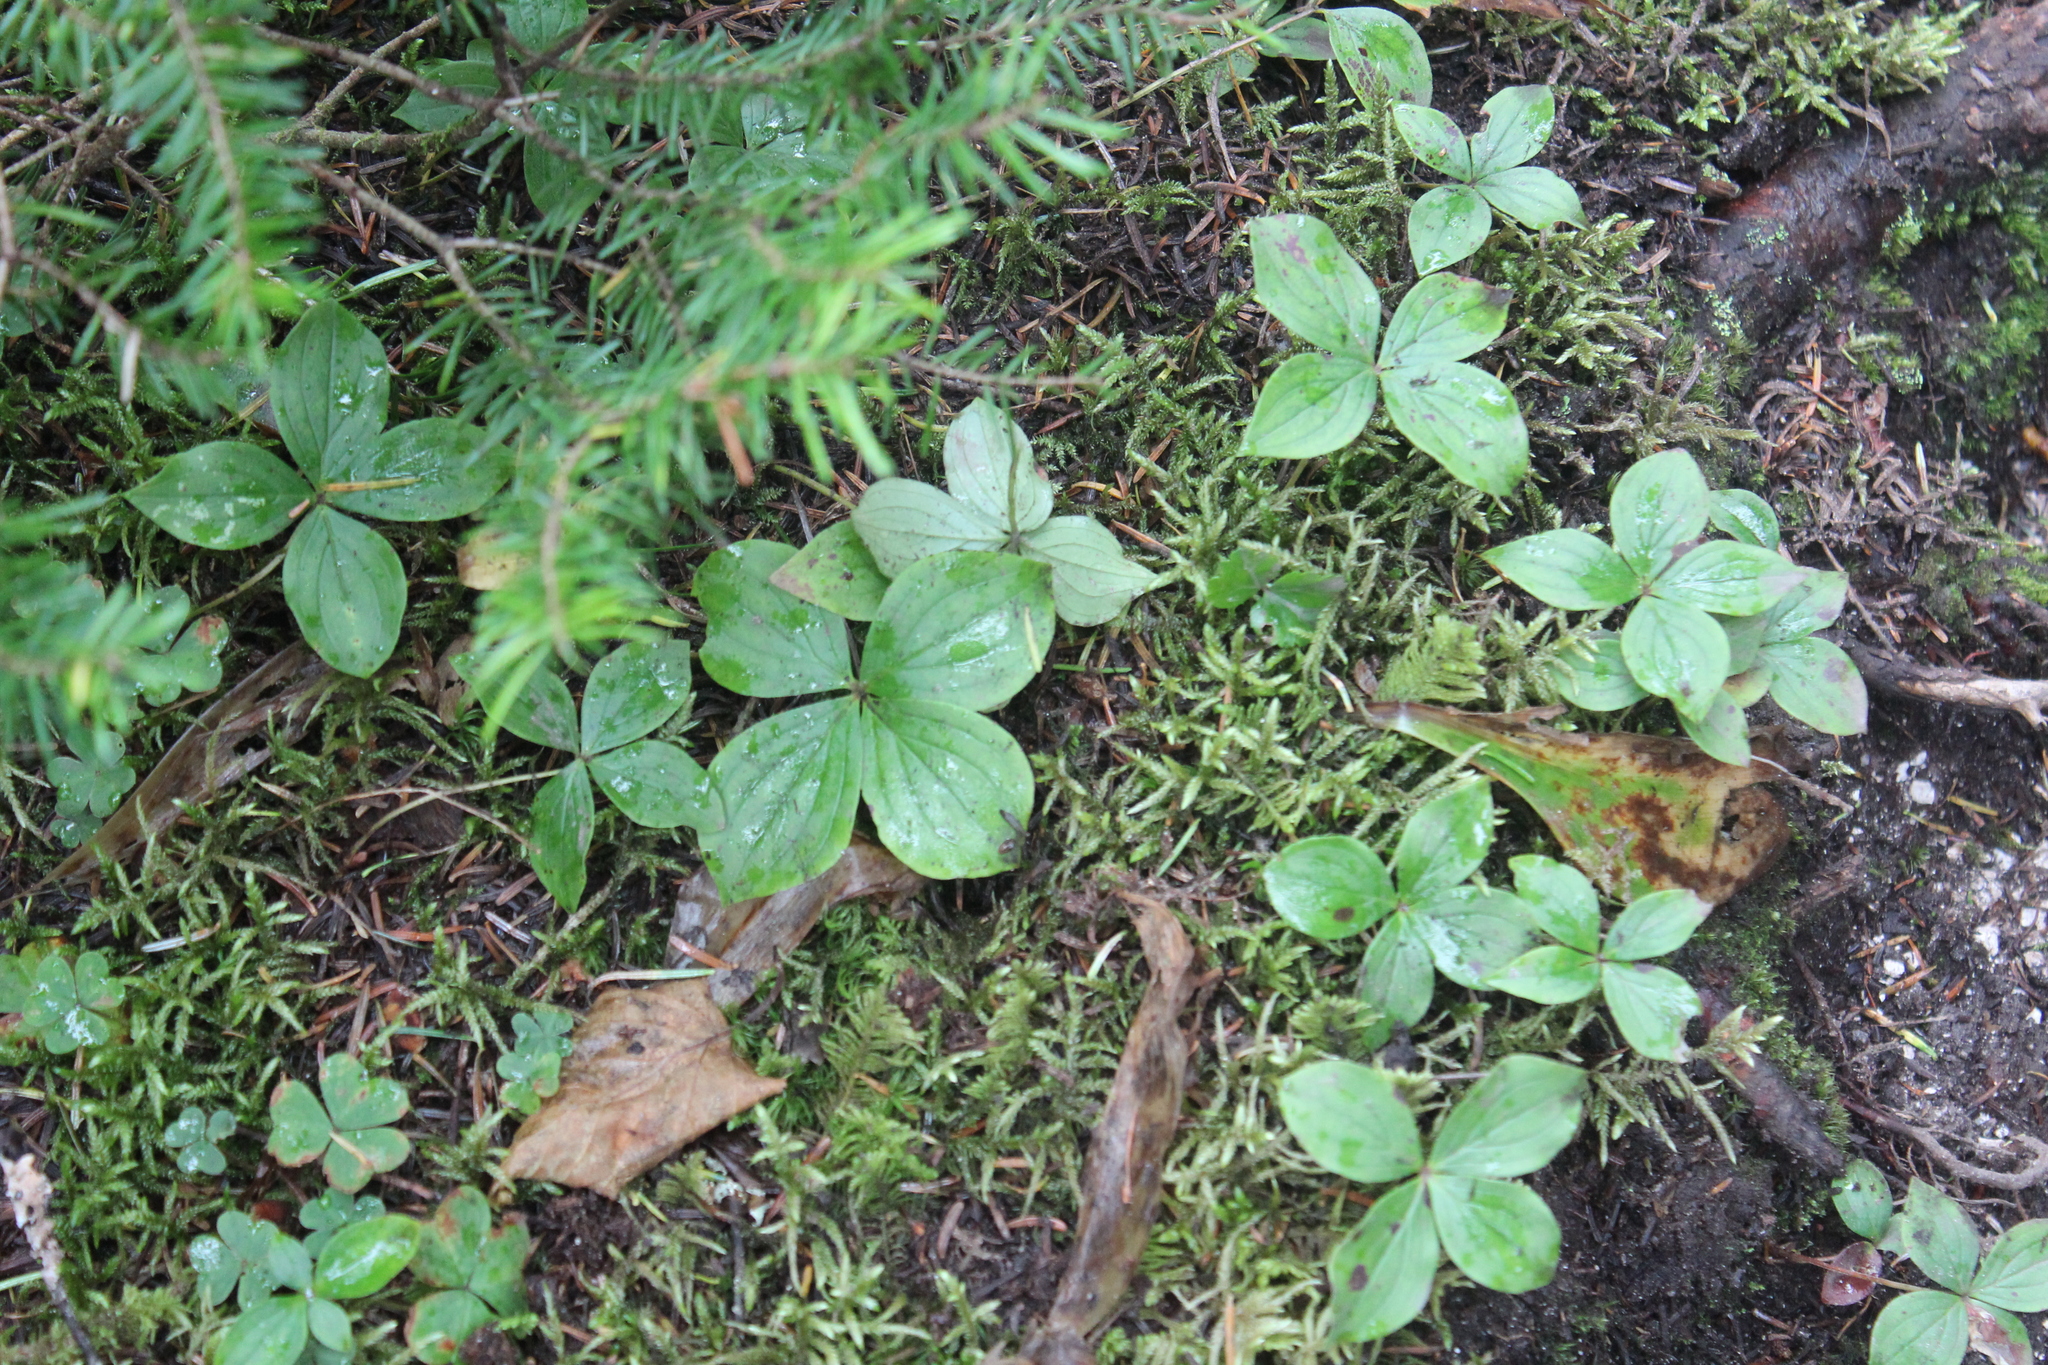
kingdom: Plantae
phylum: Tracheophyta
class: Magnoliopsida
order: Cornales
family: Cornaceae
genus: Cornus
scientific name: Cornus canadensis
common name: Creeping dogwood
